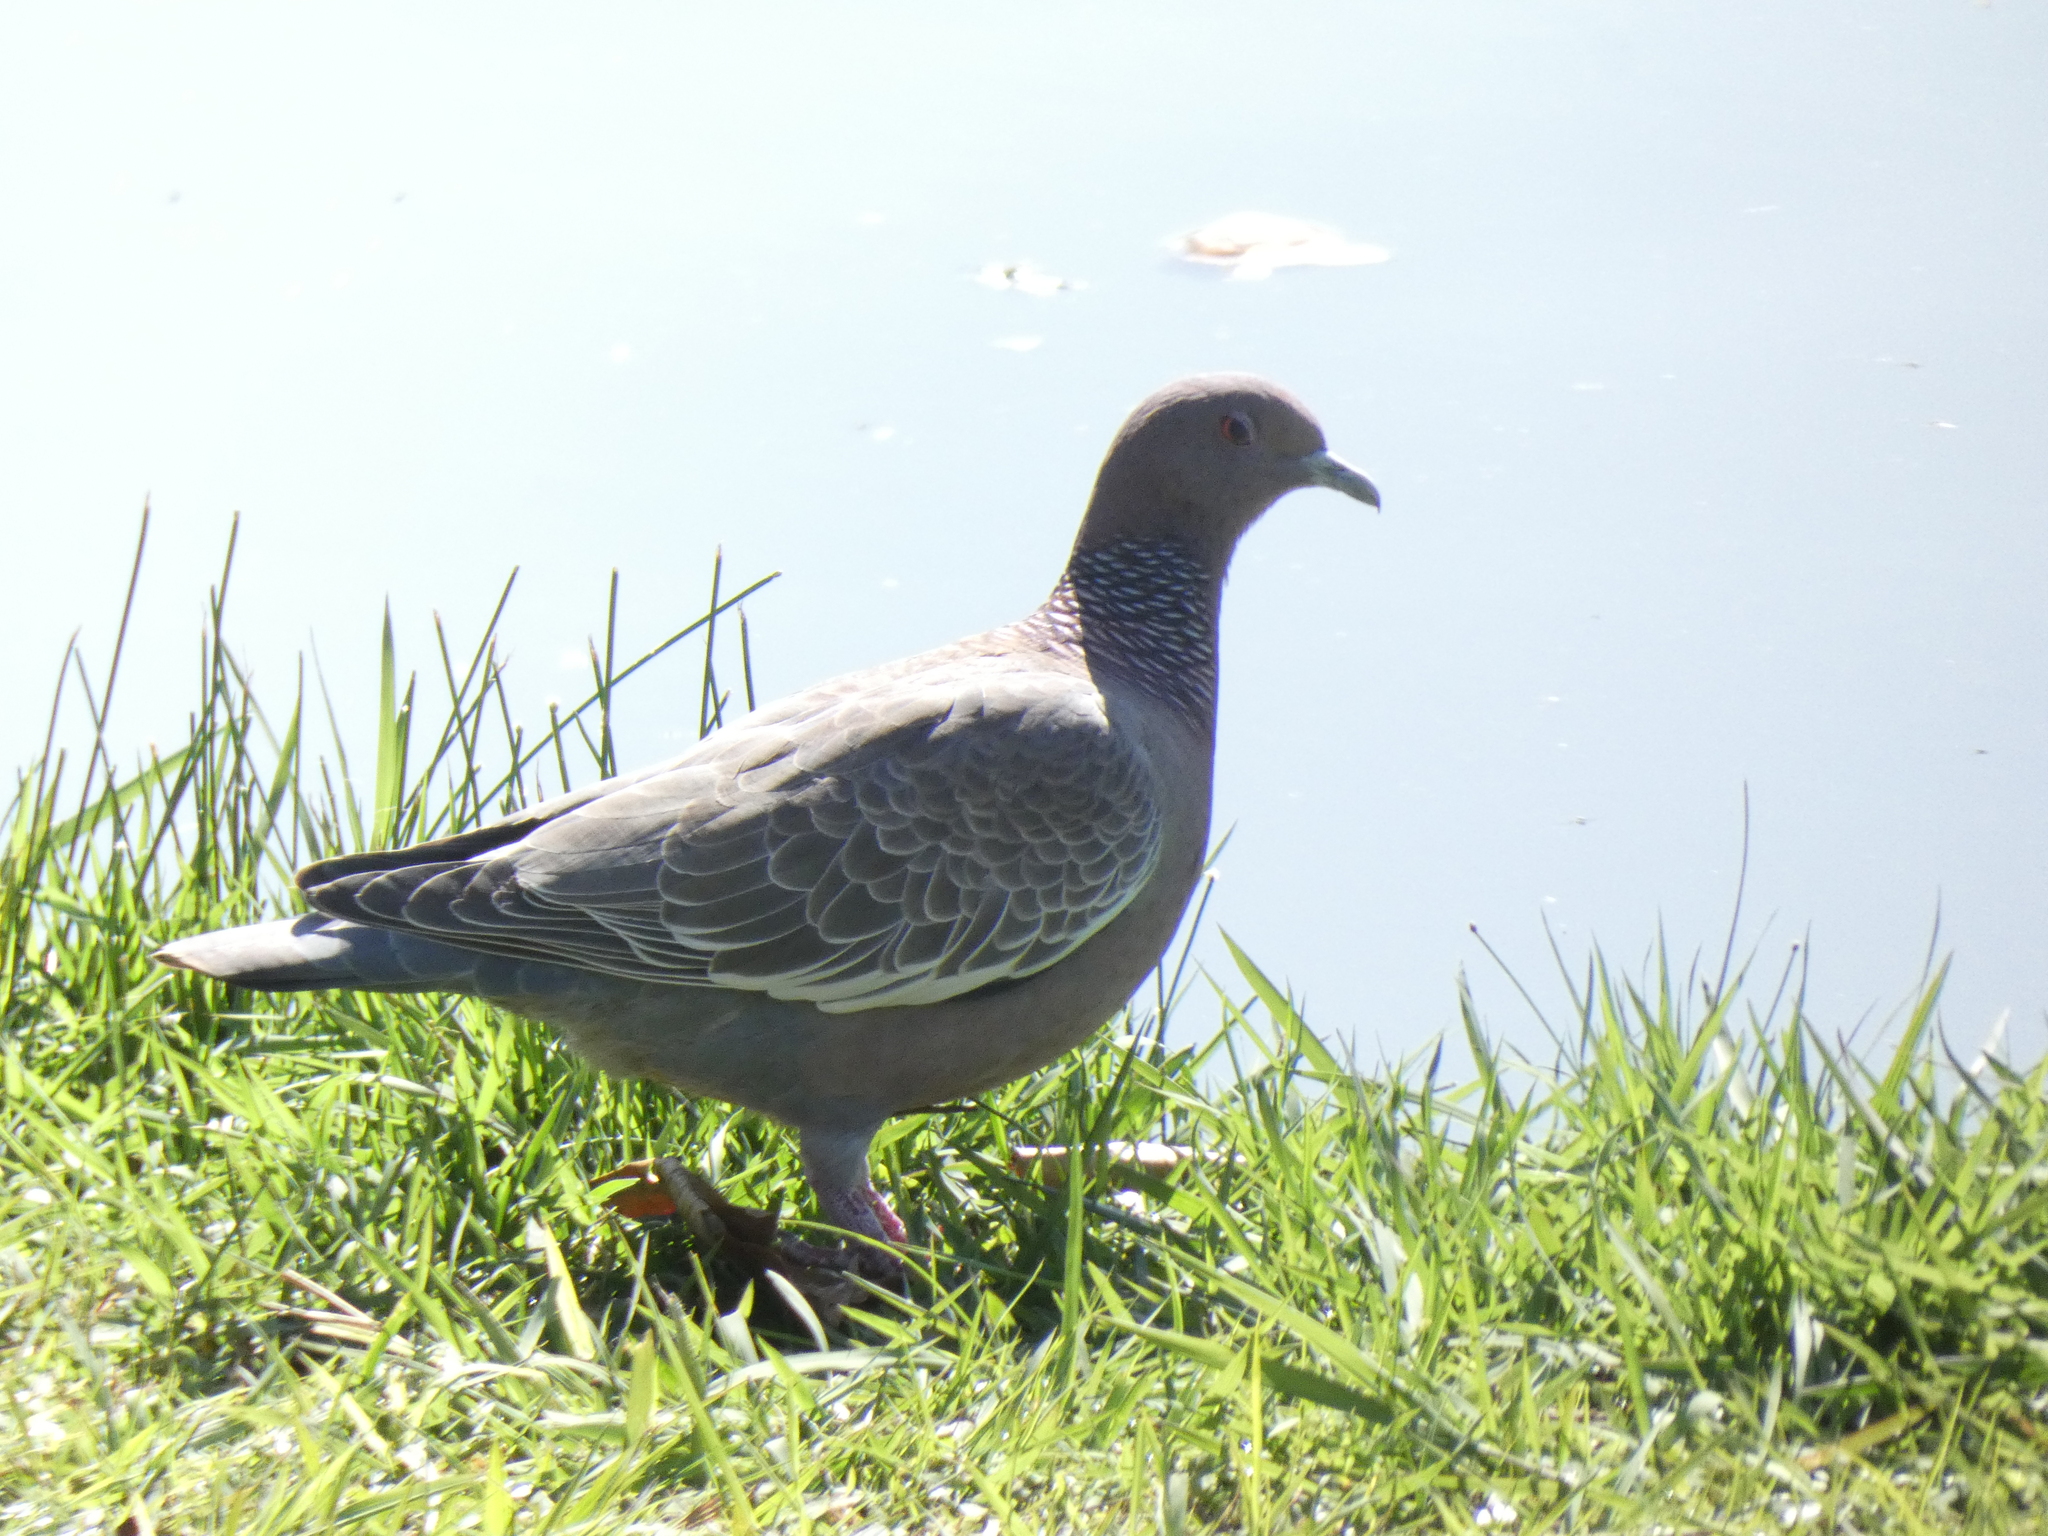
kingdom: Animalia
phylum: Chordata
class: Aves
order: Columbiformes
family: Columbidae
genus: Patagioenas
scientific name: Patagioenas picazuro
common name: Picazuro pigeon
